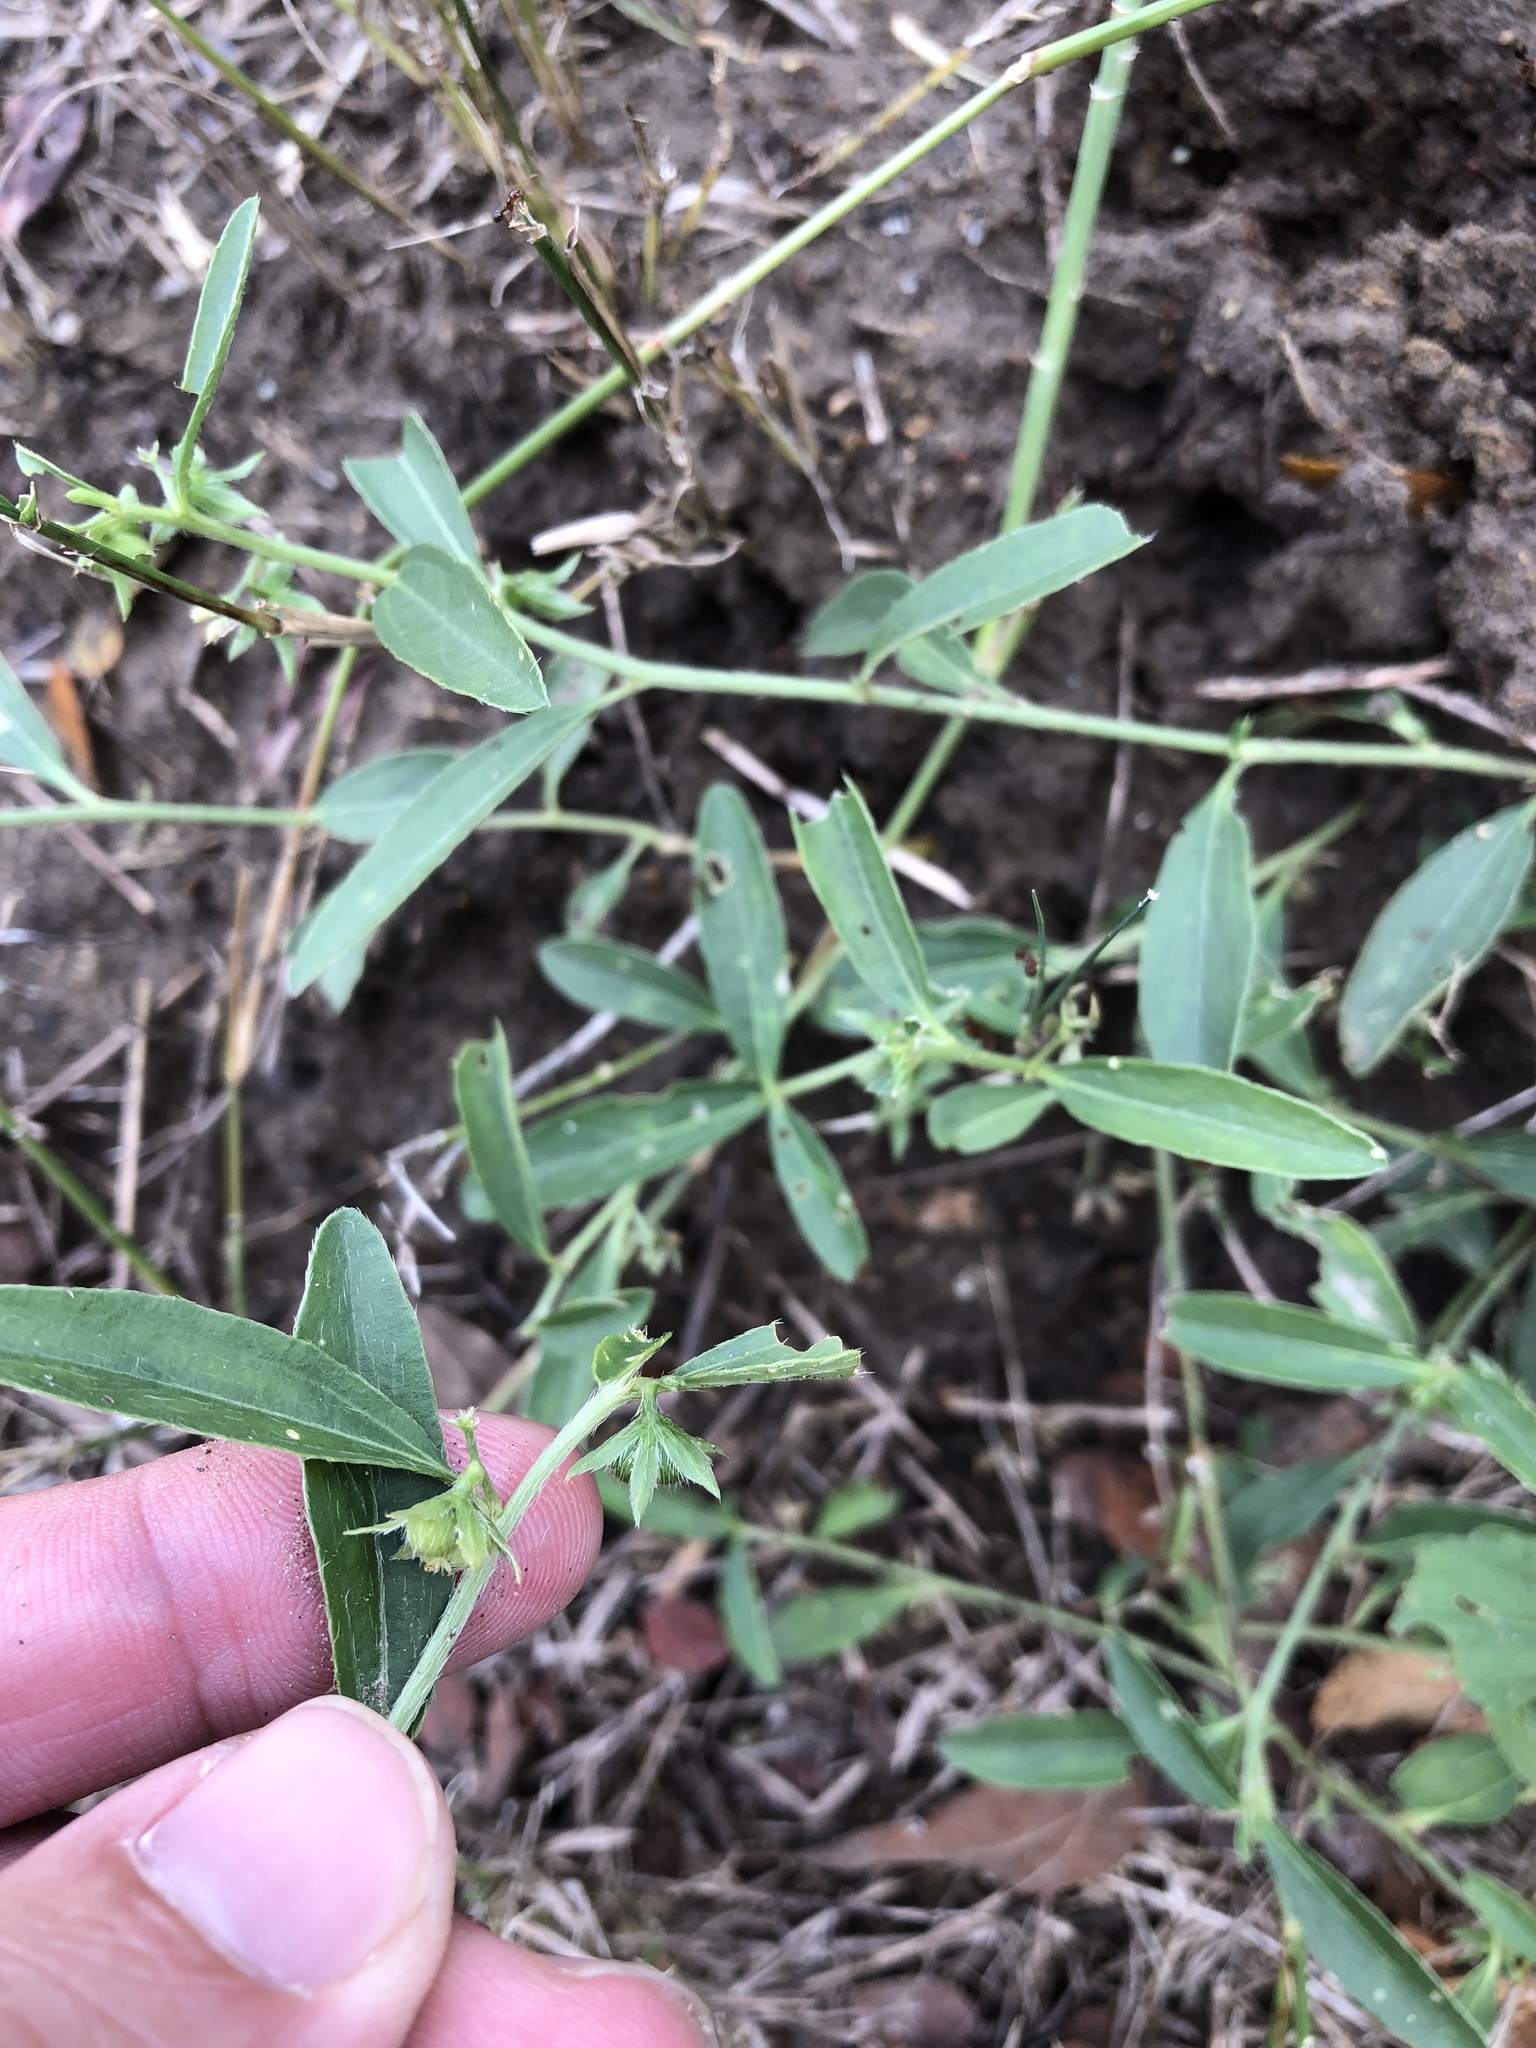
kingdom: Plantae
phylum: Tracheophyta
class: Magnoliopsida
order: Malpighiales
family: Euphorbiaceae
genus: Ditaxis
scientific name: Ditaxis humilis
